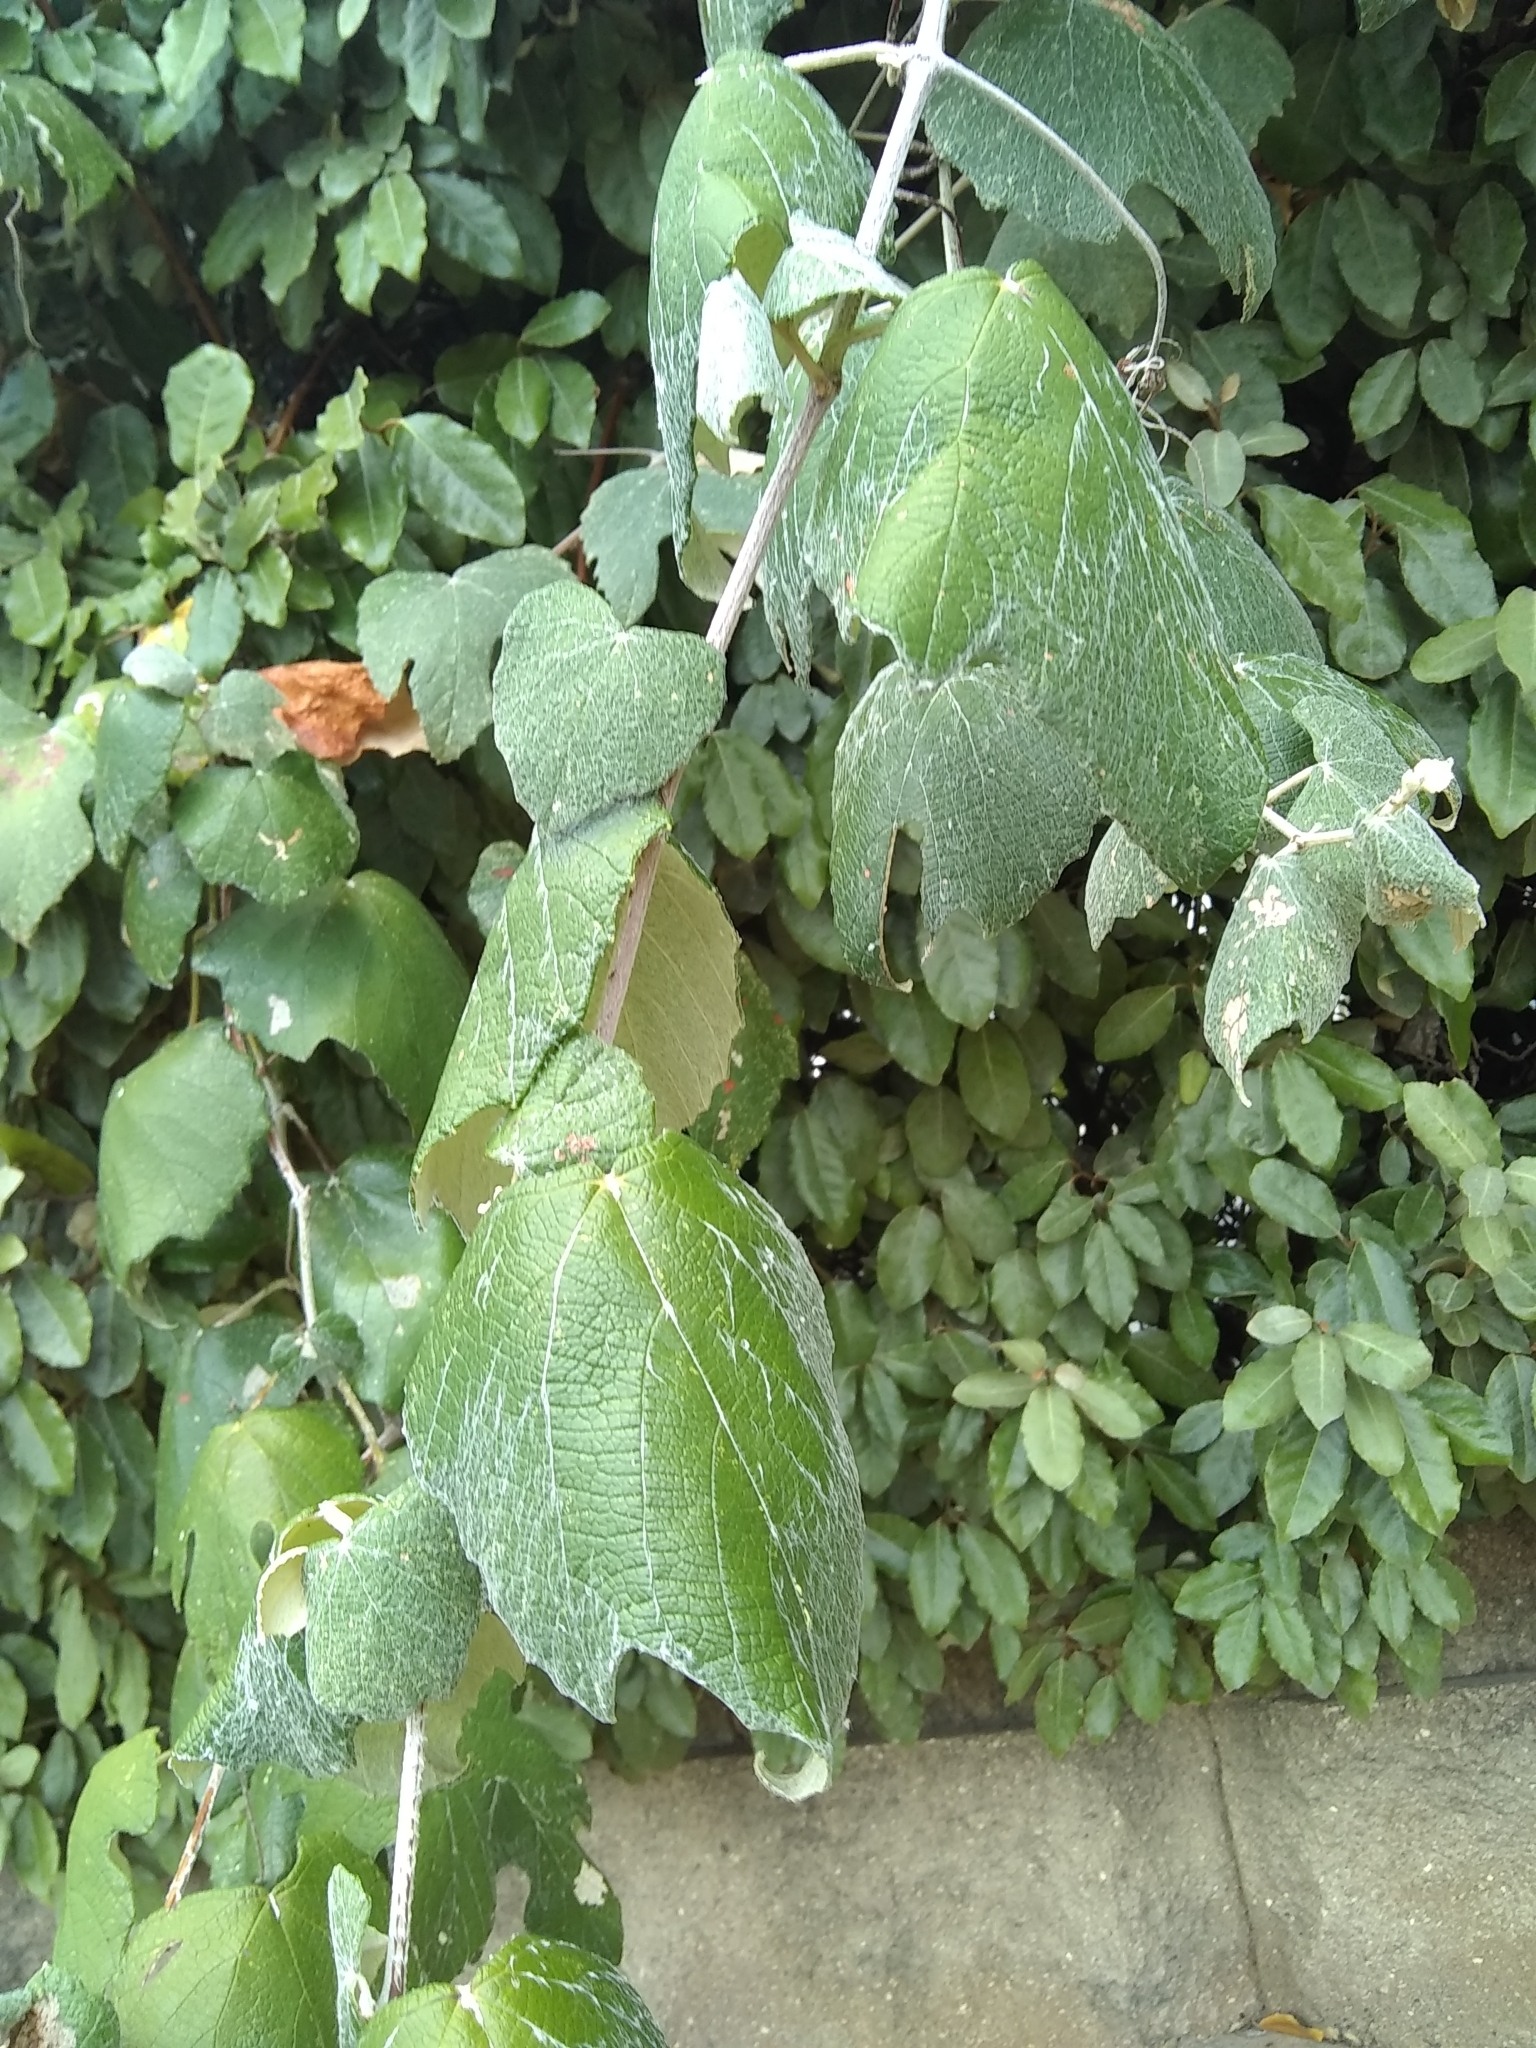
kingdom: Plantae
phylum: Tracheophyta
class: Magnoliopsida
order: Vitales
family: Vitaceae
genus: Vitis
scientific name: Vitis mustangensis
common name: Mustang grape
